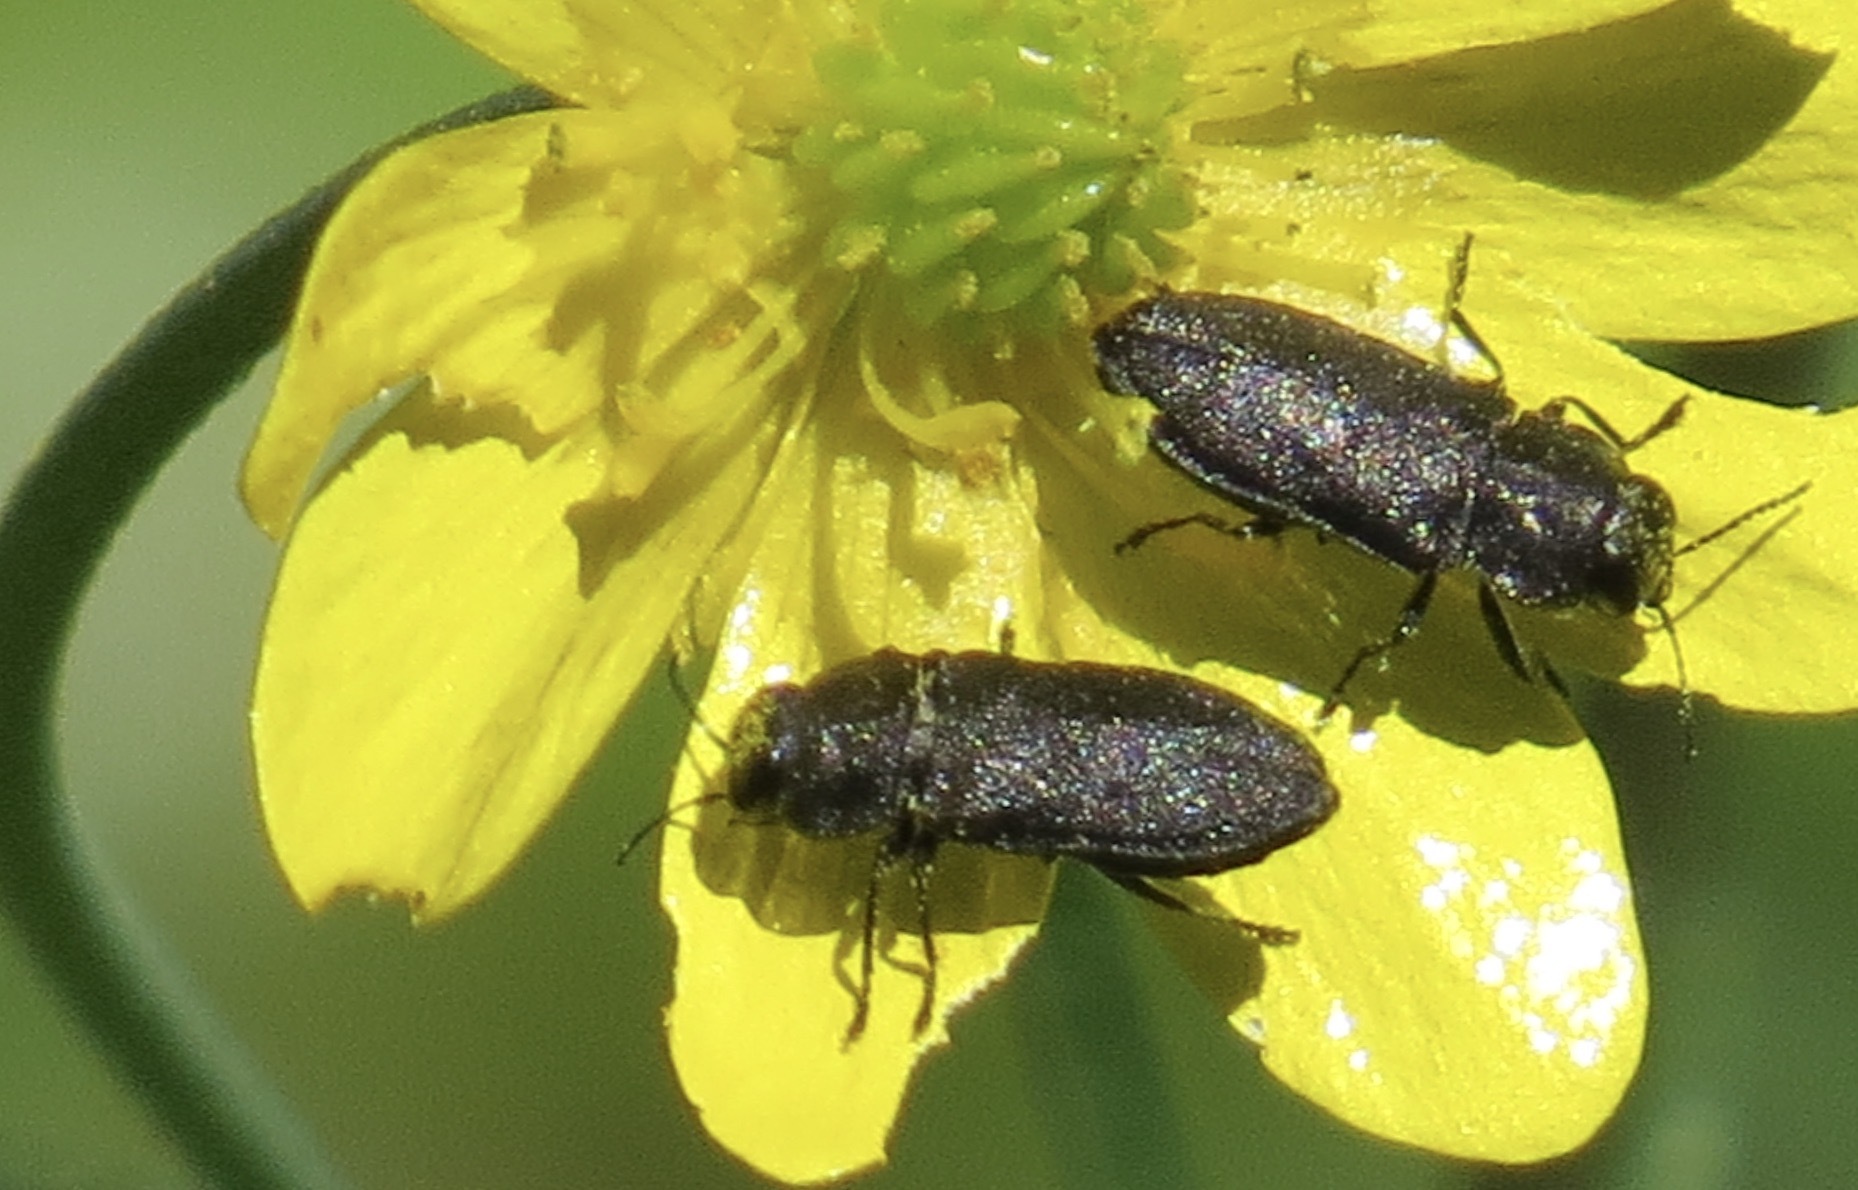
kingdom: Animalia
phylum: Arthropoda
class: Insecta
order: Coleoptera
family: Buprestidae
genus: Anthaxia
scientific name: Anthaxia
